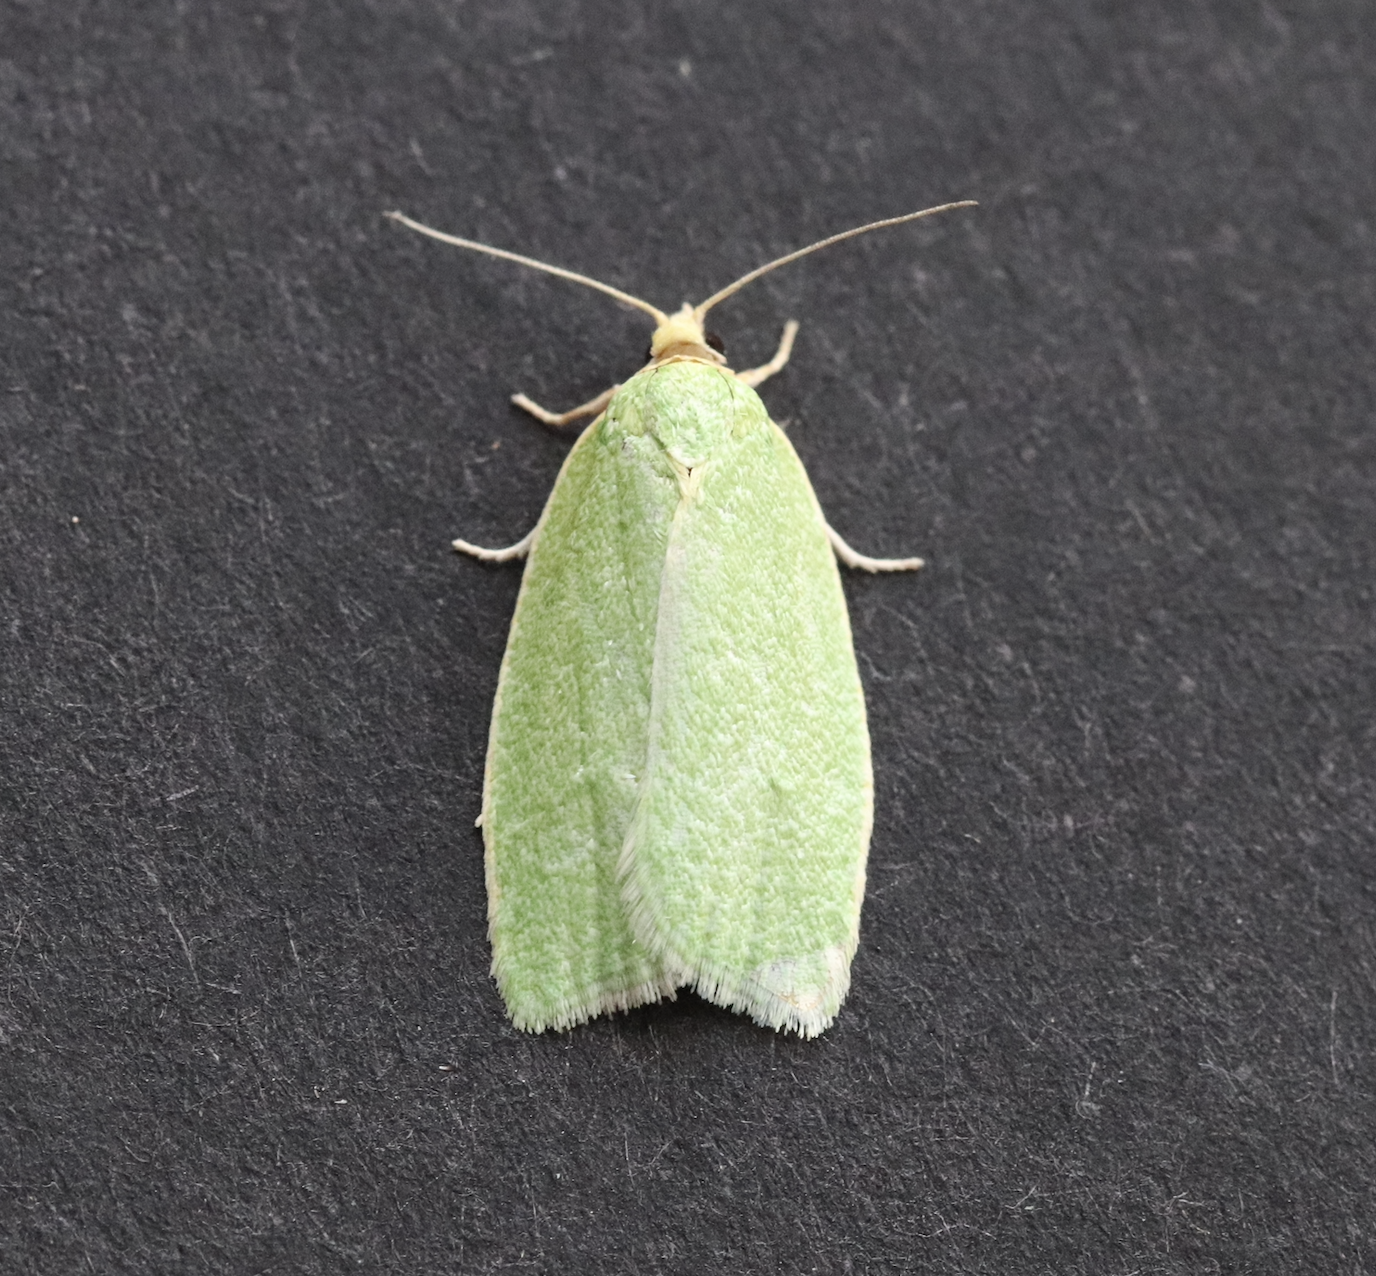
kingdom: Animalia
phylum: Arthropoda
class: Insecta
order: Lepidoptera
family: Tortricidae
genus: Tortrix
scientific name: Tortrix viridana
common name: Green oak tortrix
